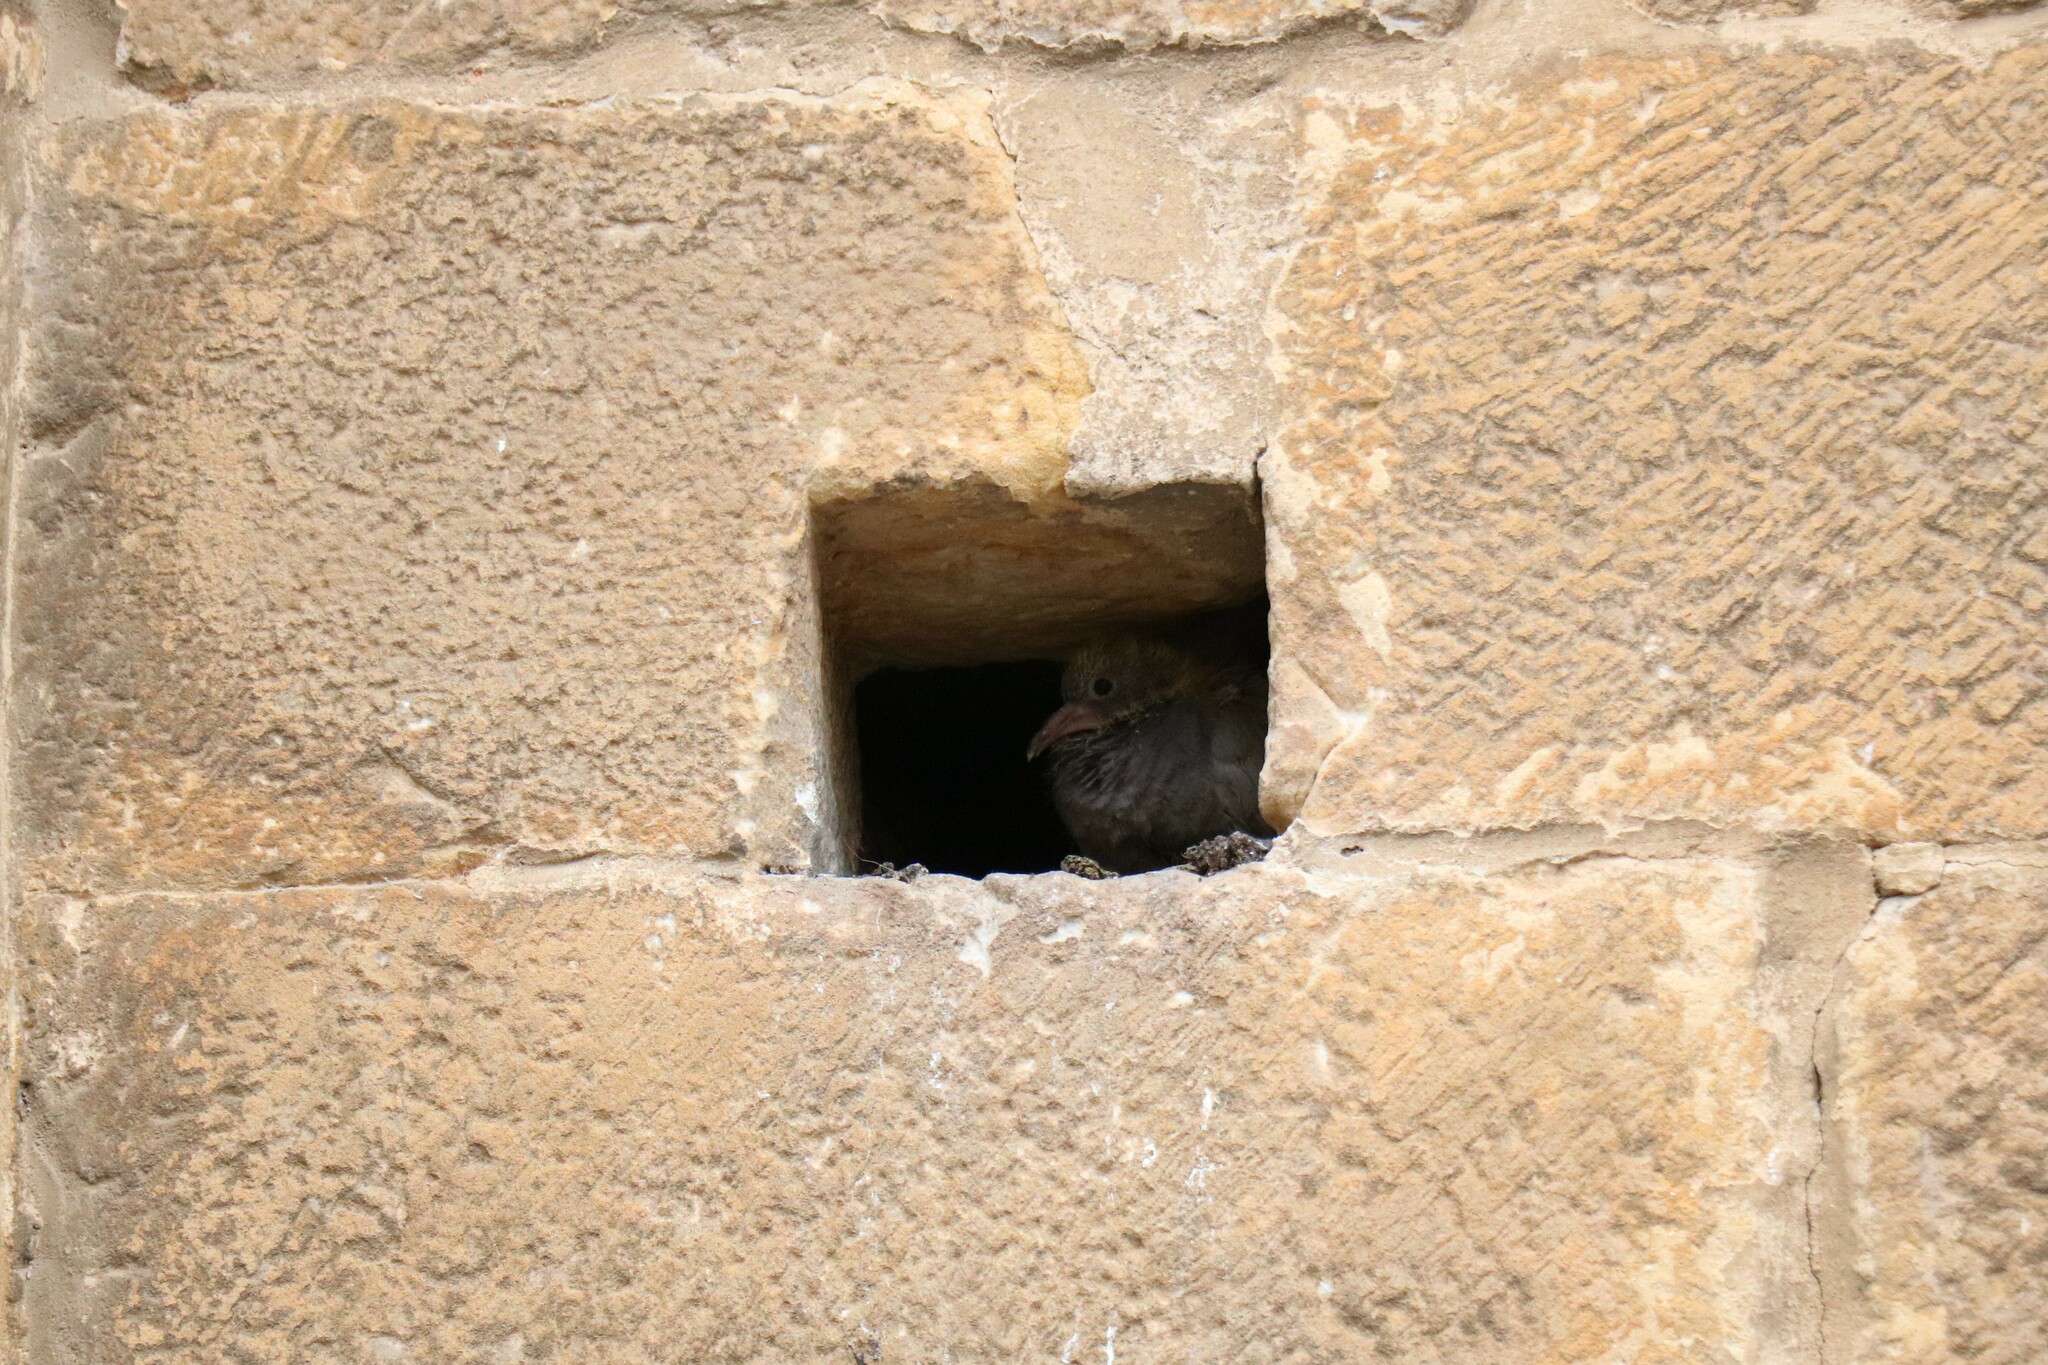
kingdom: Animalia
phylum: Chordata
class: Aves
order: Columbiformes
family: Columbidae
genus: Columba
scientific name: Columba livia
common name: Rock pigeon
